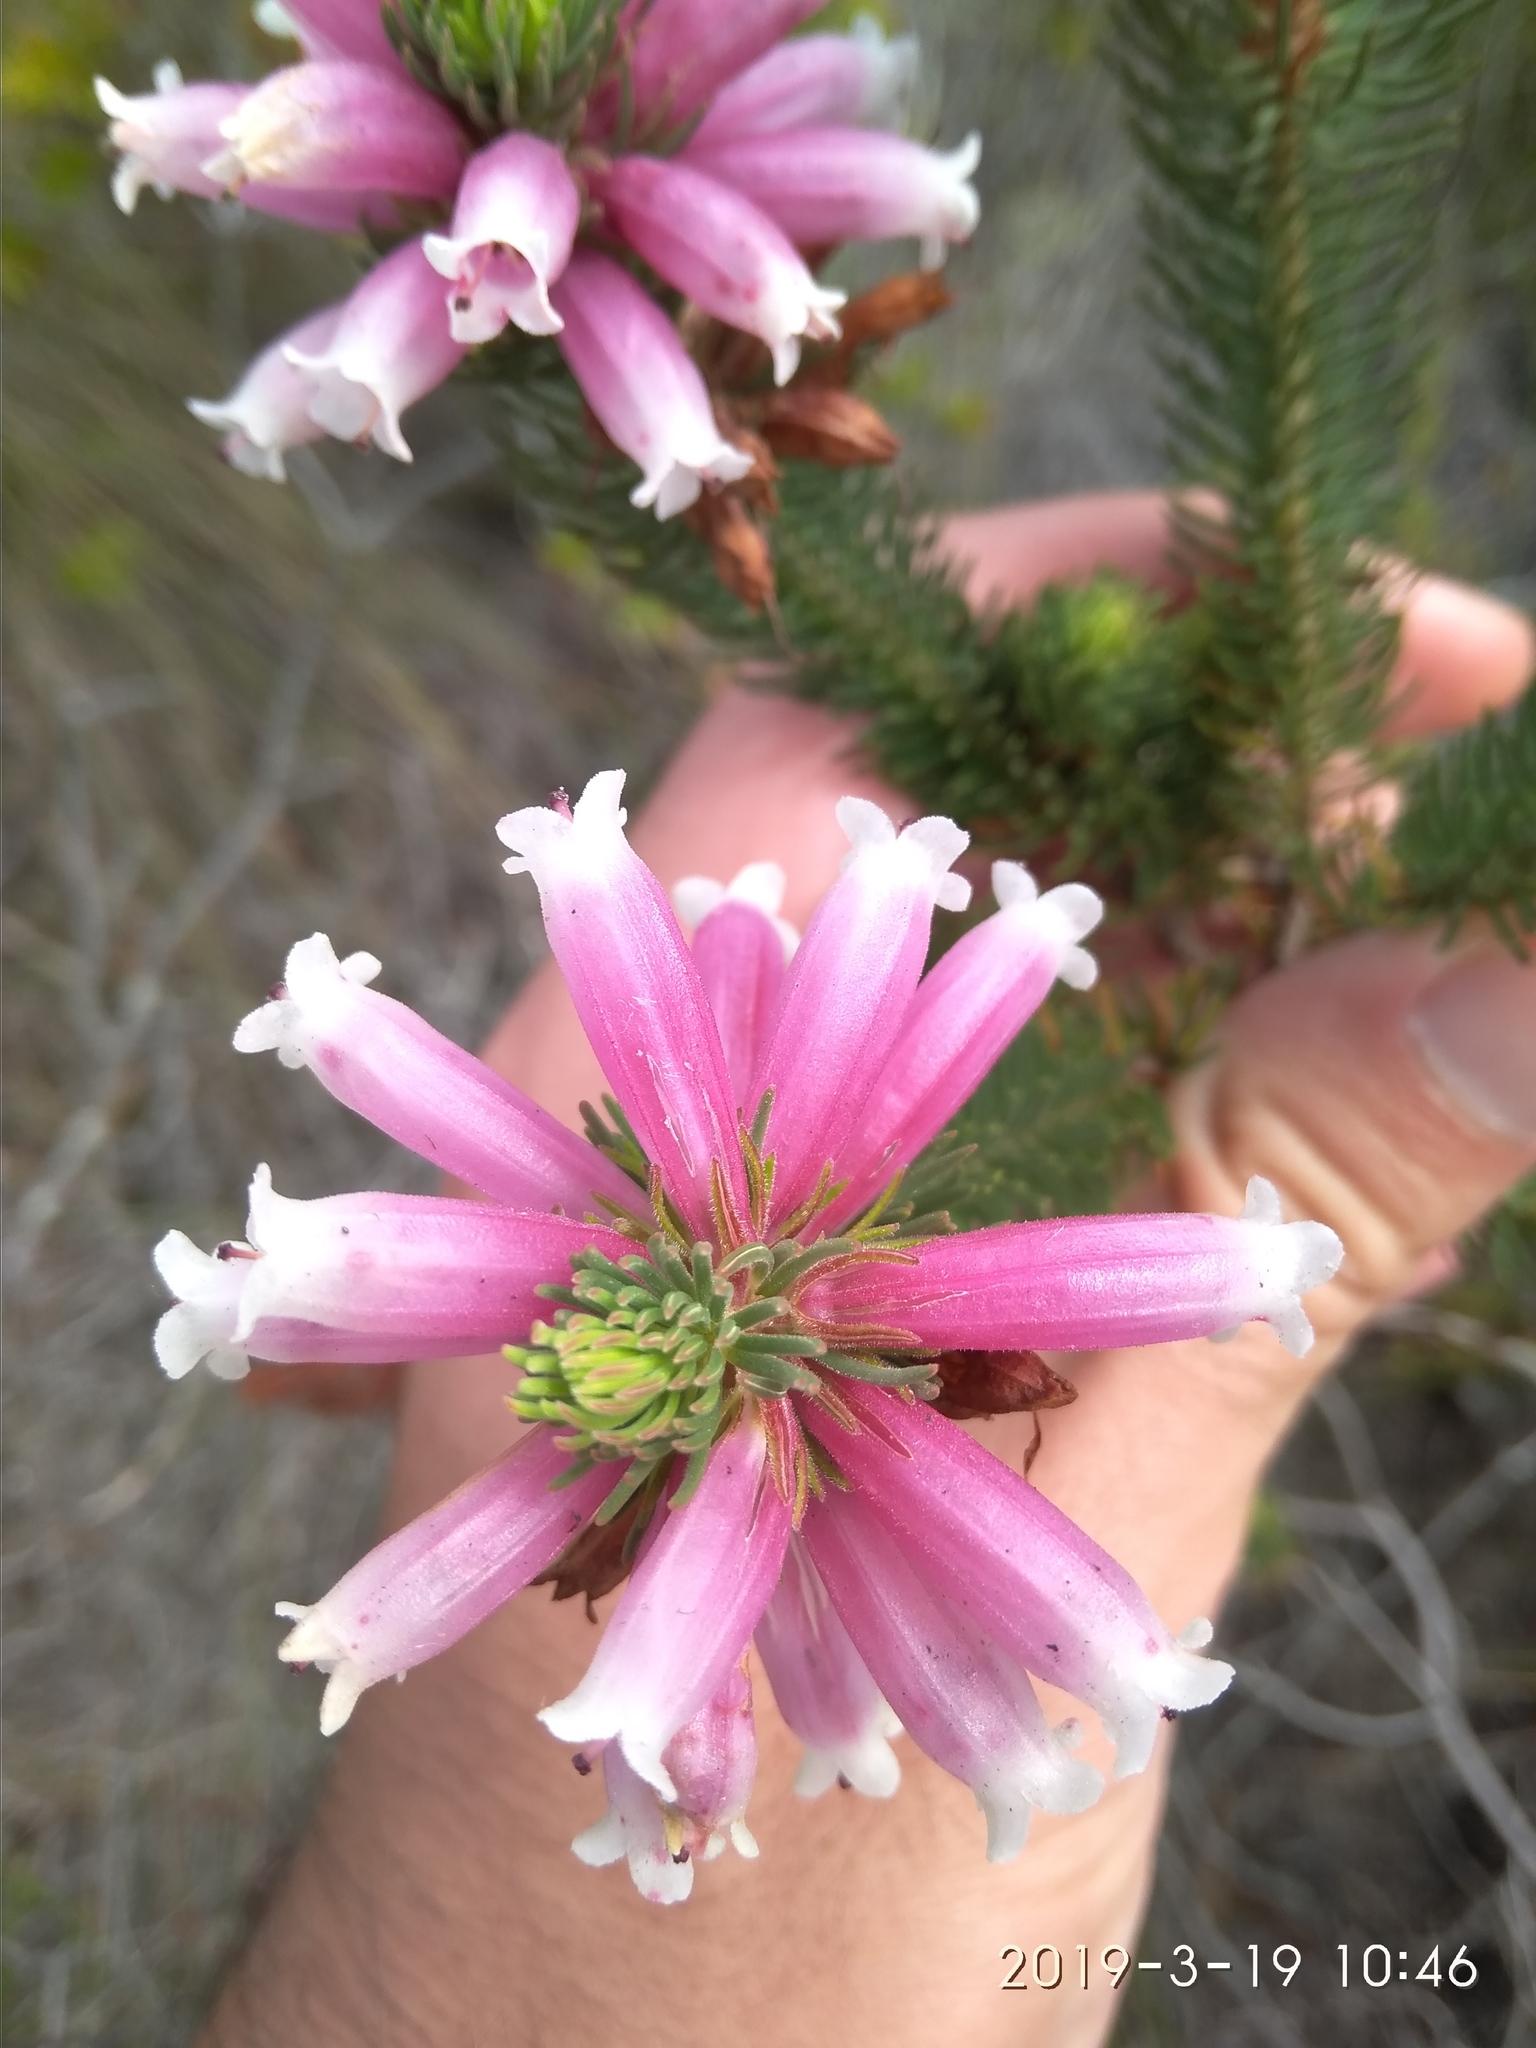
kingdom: Plantae
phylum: Tracheophyta
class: Magnoliopsida
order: Ericales
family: Ericaceae
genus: Erica
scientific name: Erica viscaria
